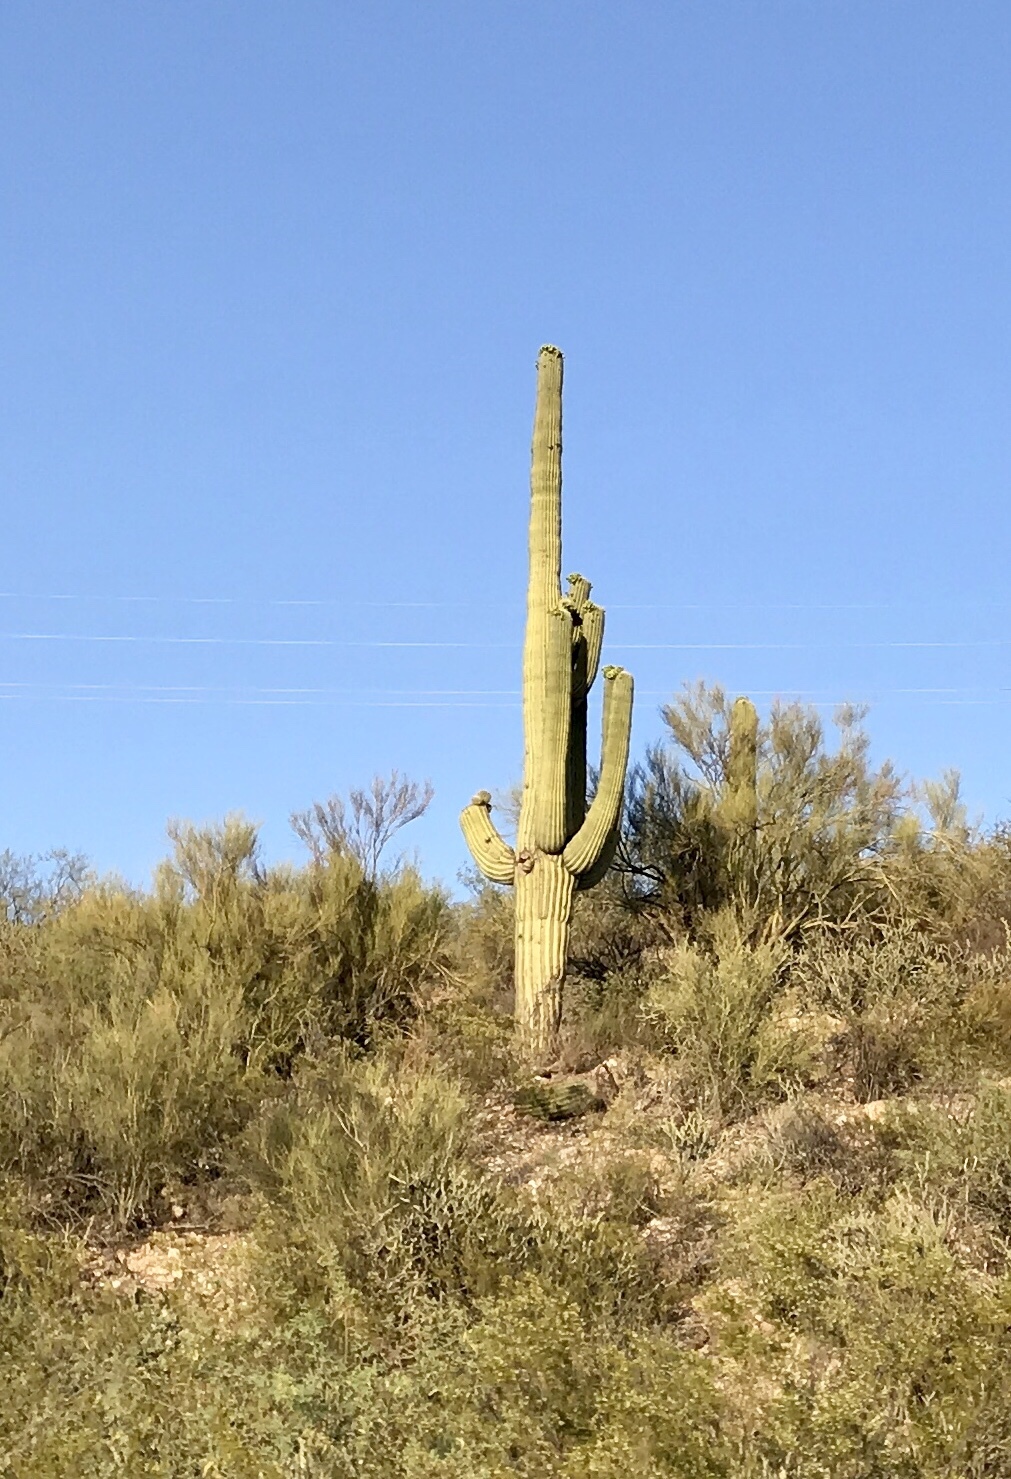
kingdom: Plantae
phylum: Tracheophyta
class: Magnoliopsida
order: Caryophyllales
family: Cactaceae
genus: Carnegiea
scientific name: Carnegiea gigantea
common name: Saguaro
